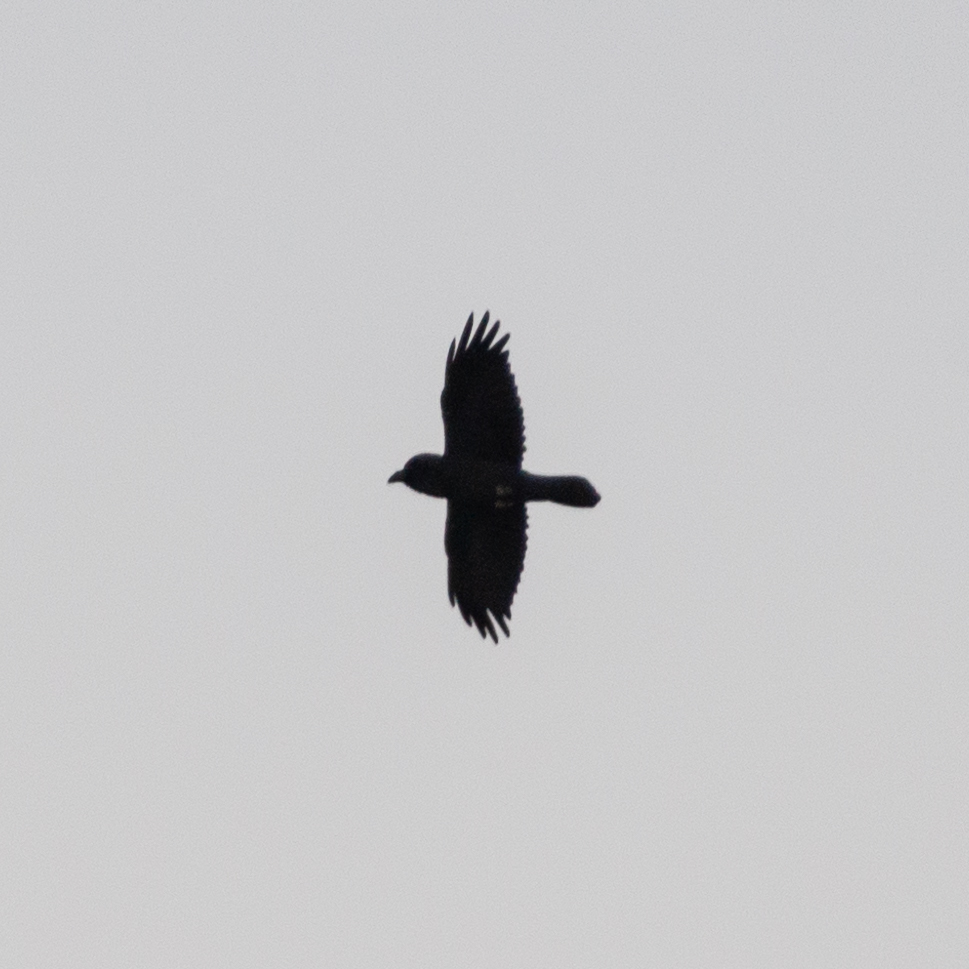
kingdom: Animalia
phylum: Chordata
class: Aves
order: Passeriformes
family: Corvidae
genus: Corvus
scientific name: Corvus corax
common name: Common raven
